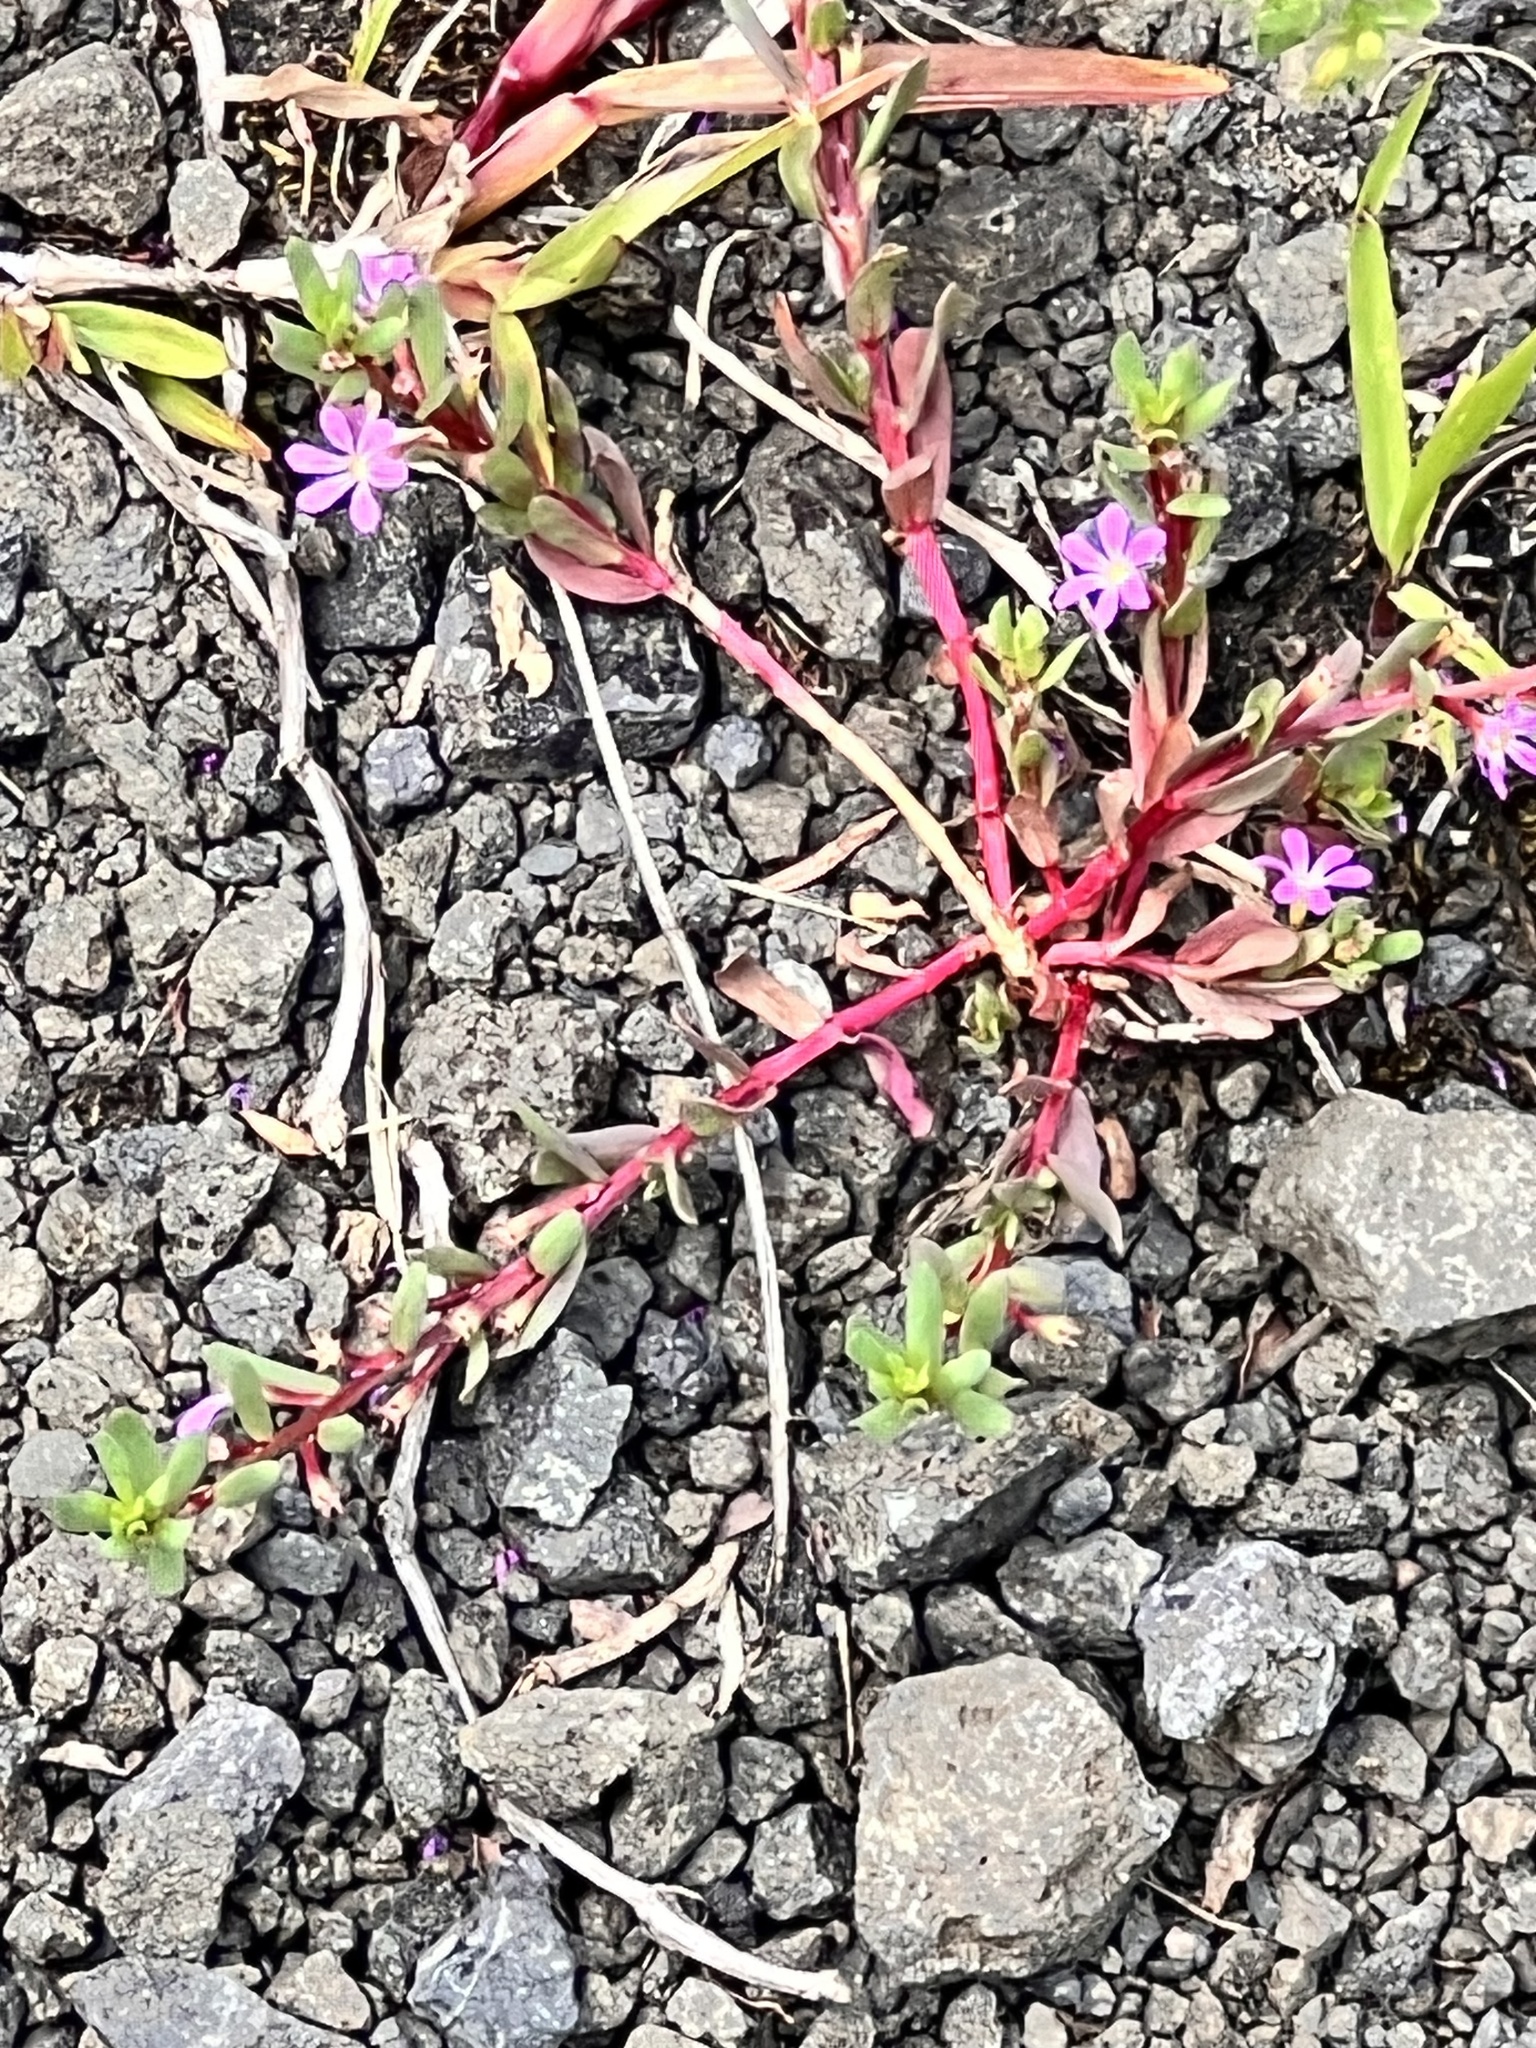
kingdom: Plantae
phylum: Tracheophyta
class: Magnoliopsida
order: Myrtales
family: Lythraceae
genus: Lythrum
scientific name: Lythrum hyssopifolia
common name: Grass-poly
